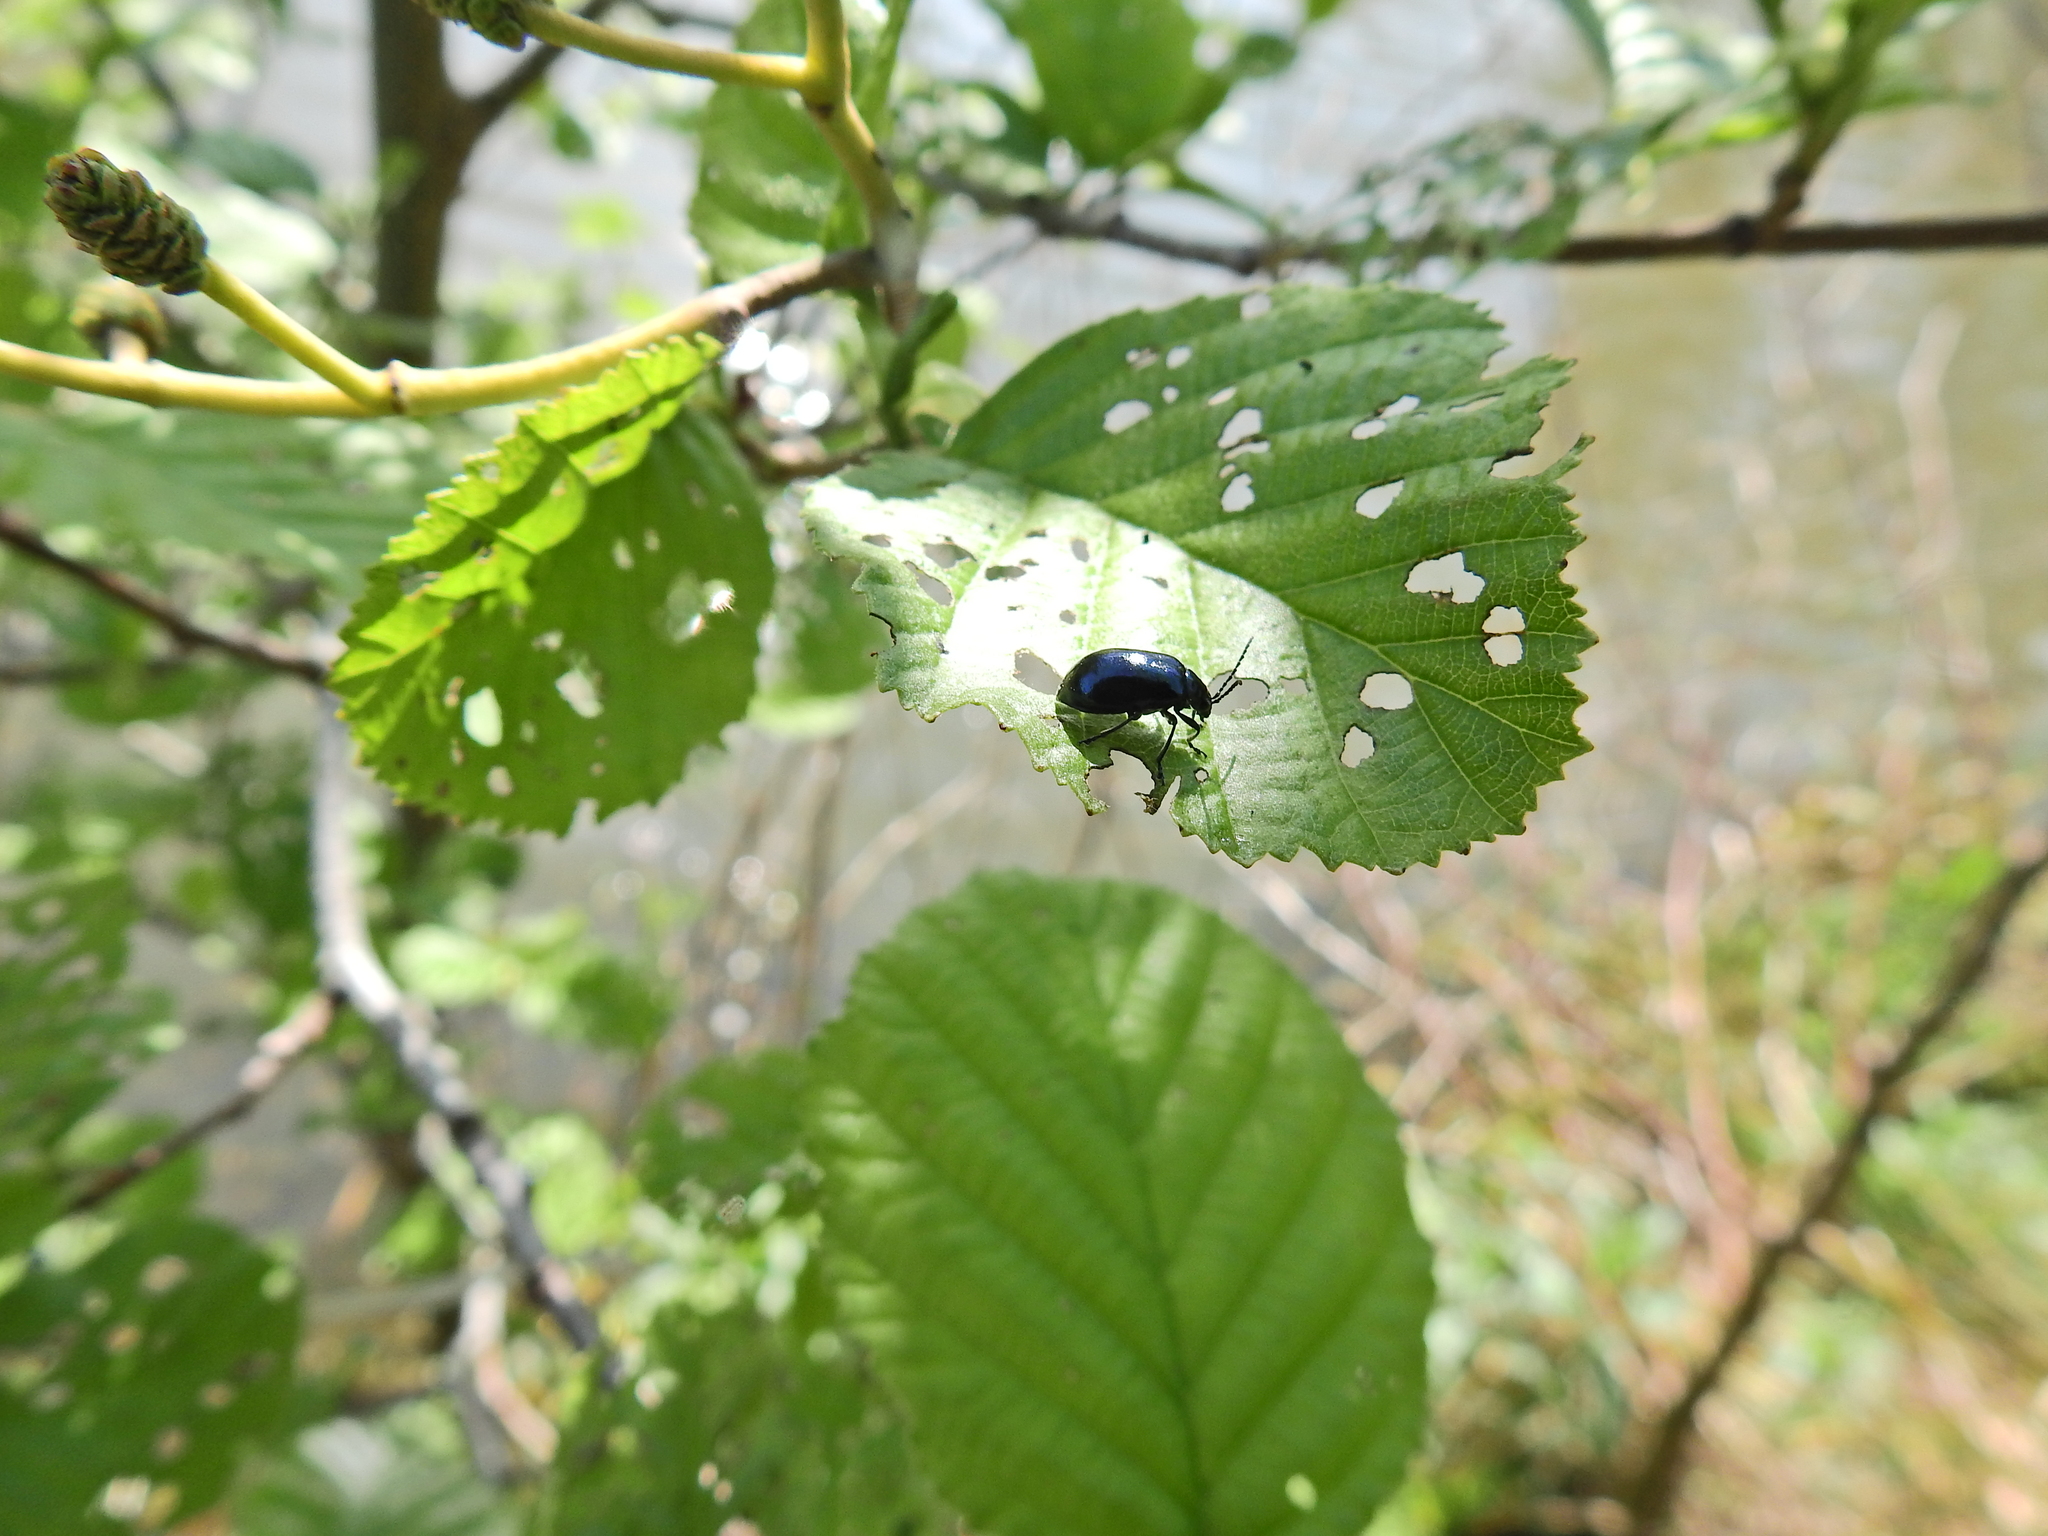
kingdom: Animalia
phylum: Arthropoda
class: Insecta
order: Coleoptera
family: Chrysomelidae
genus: Agelastica
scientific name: Agelastica alni
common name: Alder leaf beetle
